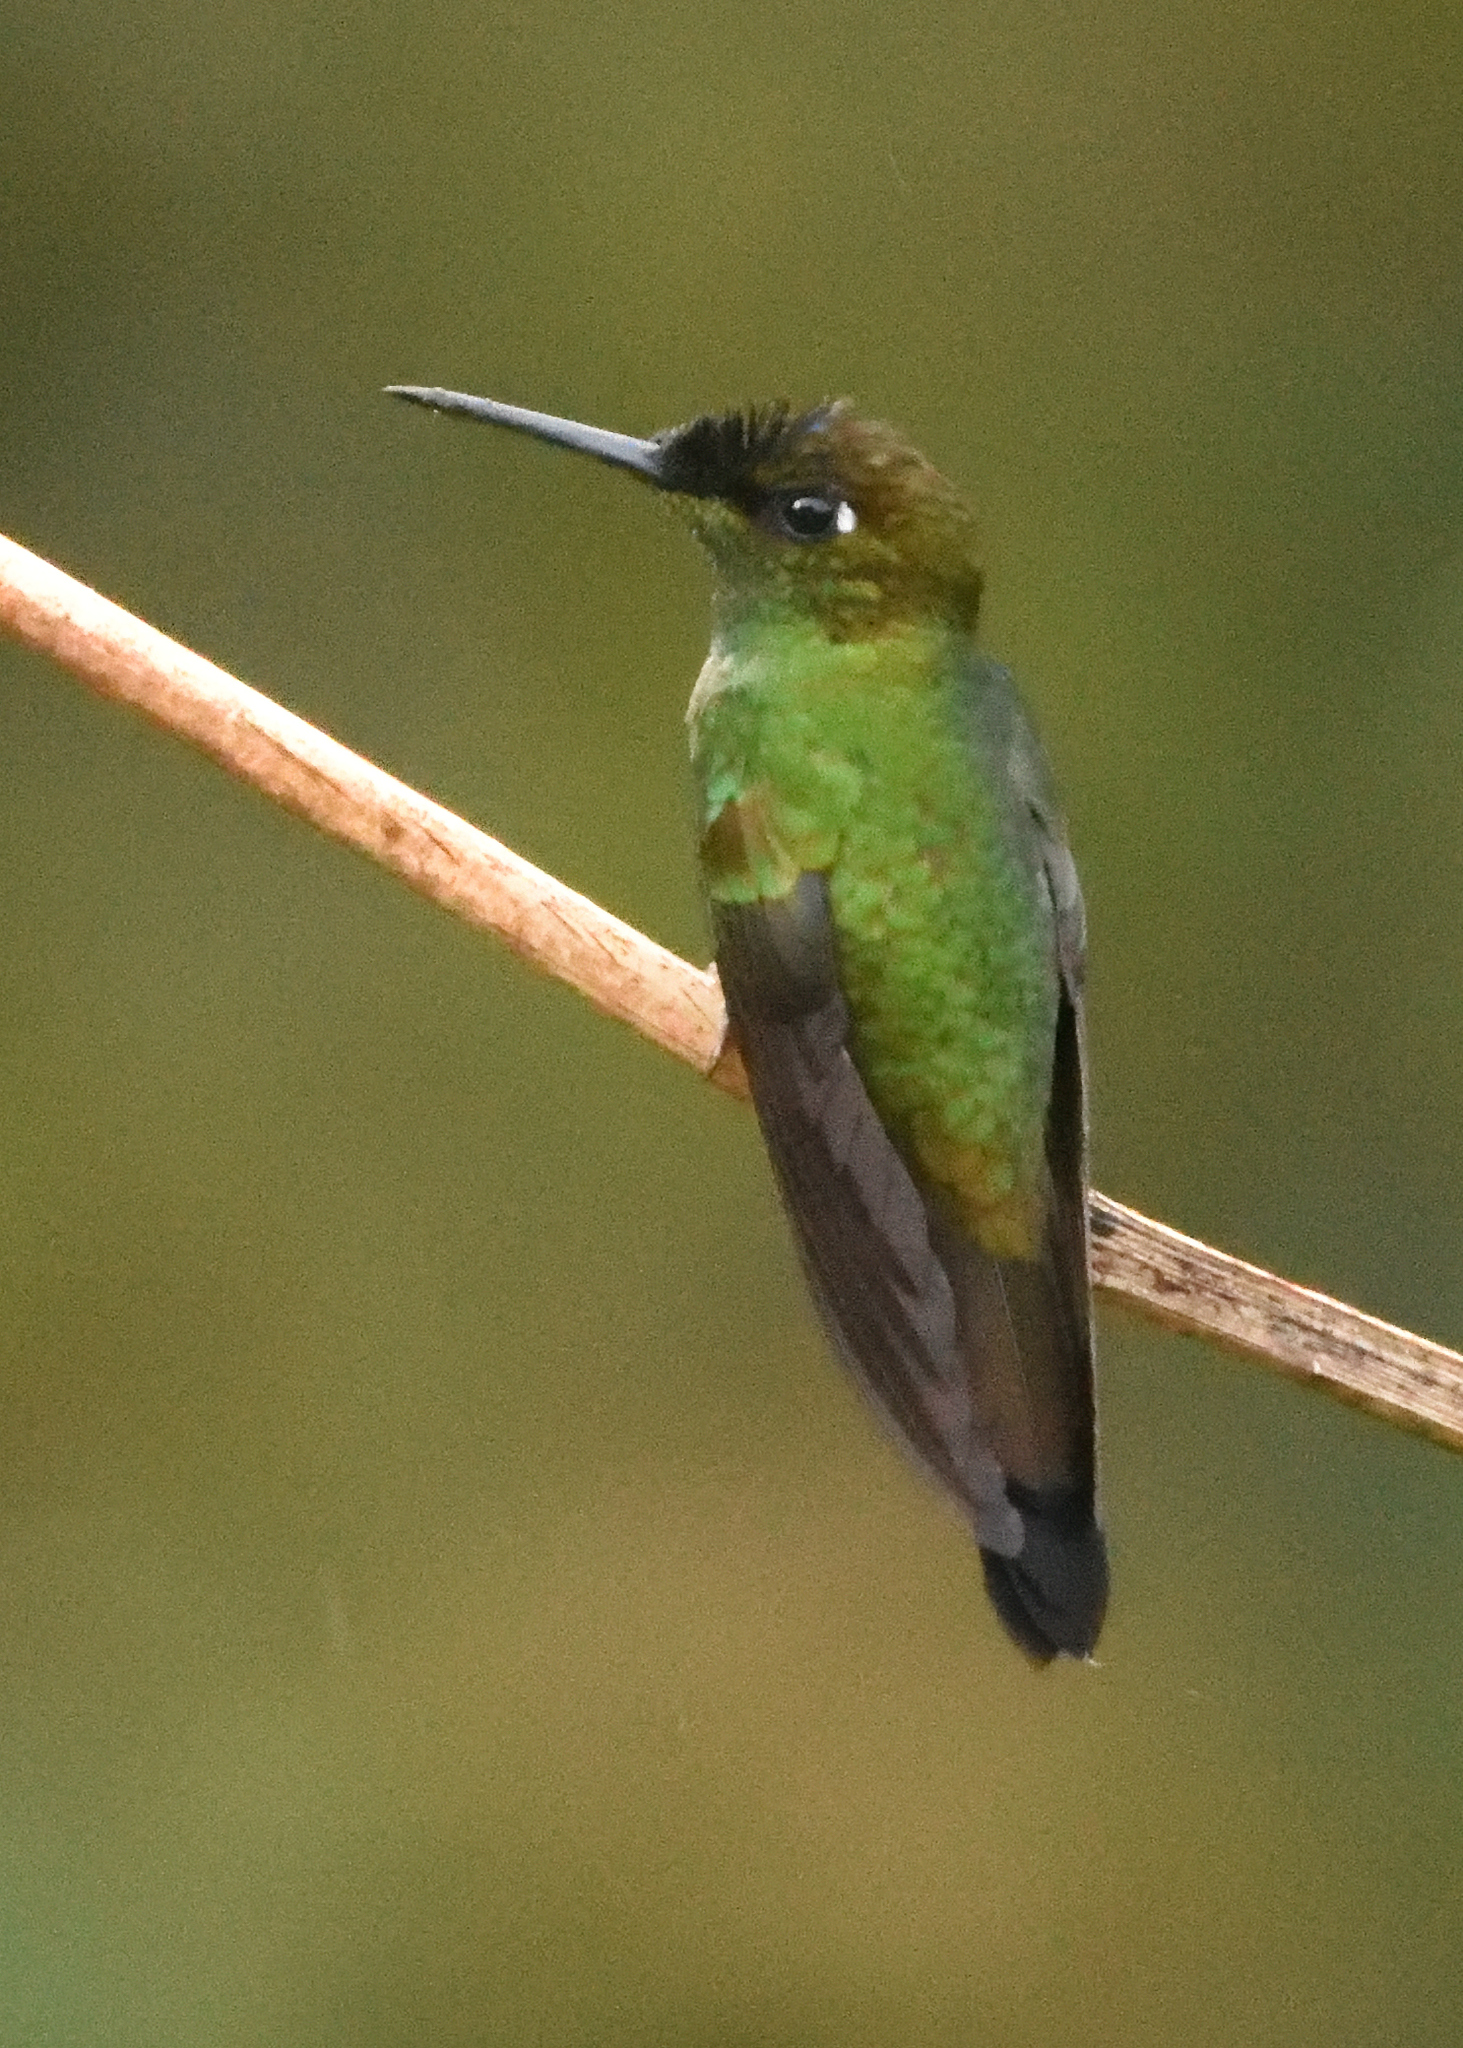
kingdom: Animalia
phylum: Chordata
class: Aves
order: Apodiformes
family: Trochilidae
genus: Heliodoxa
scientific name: Heliodoxa leadbeateri
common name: Violet-fronted brilliant
